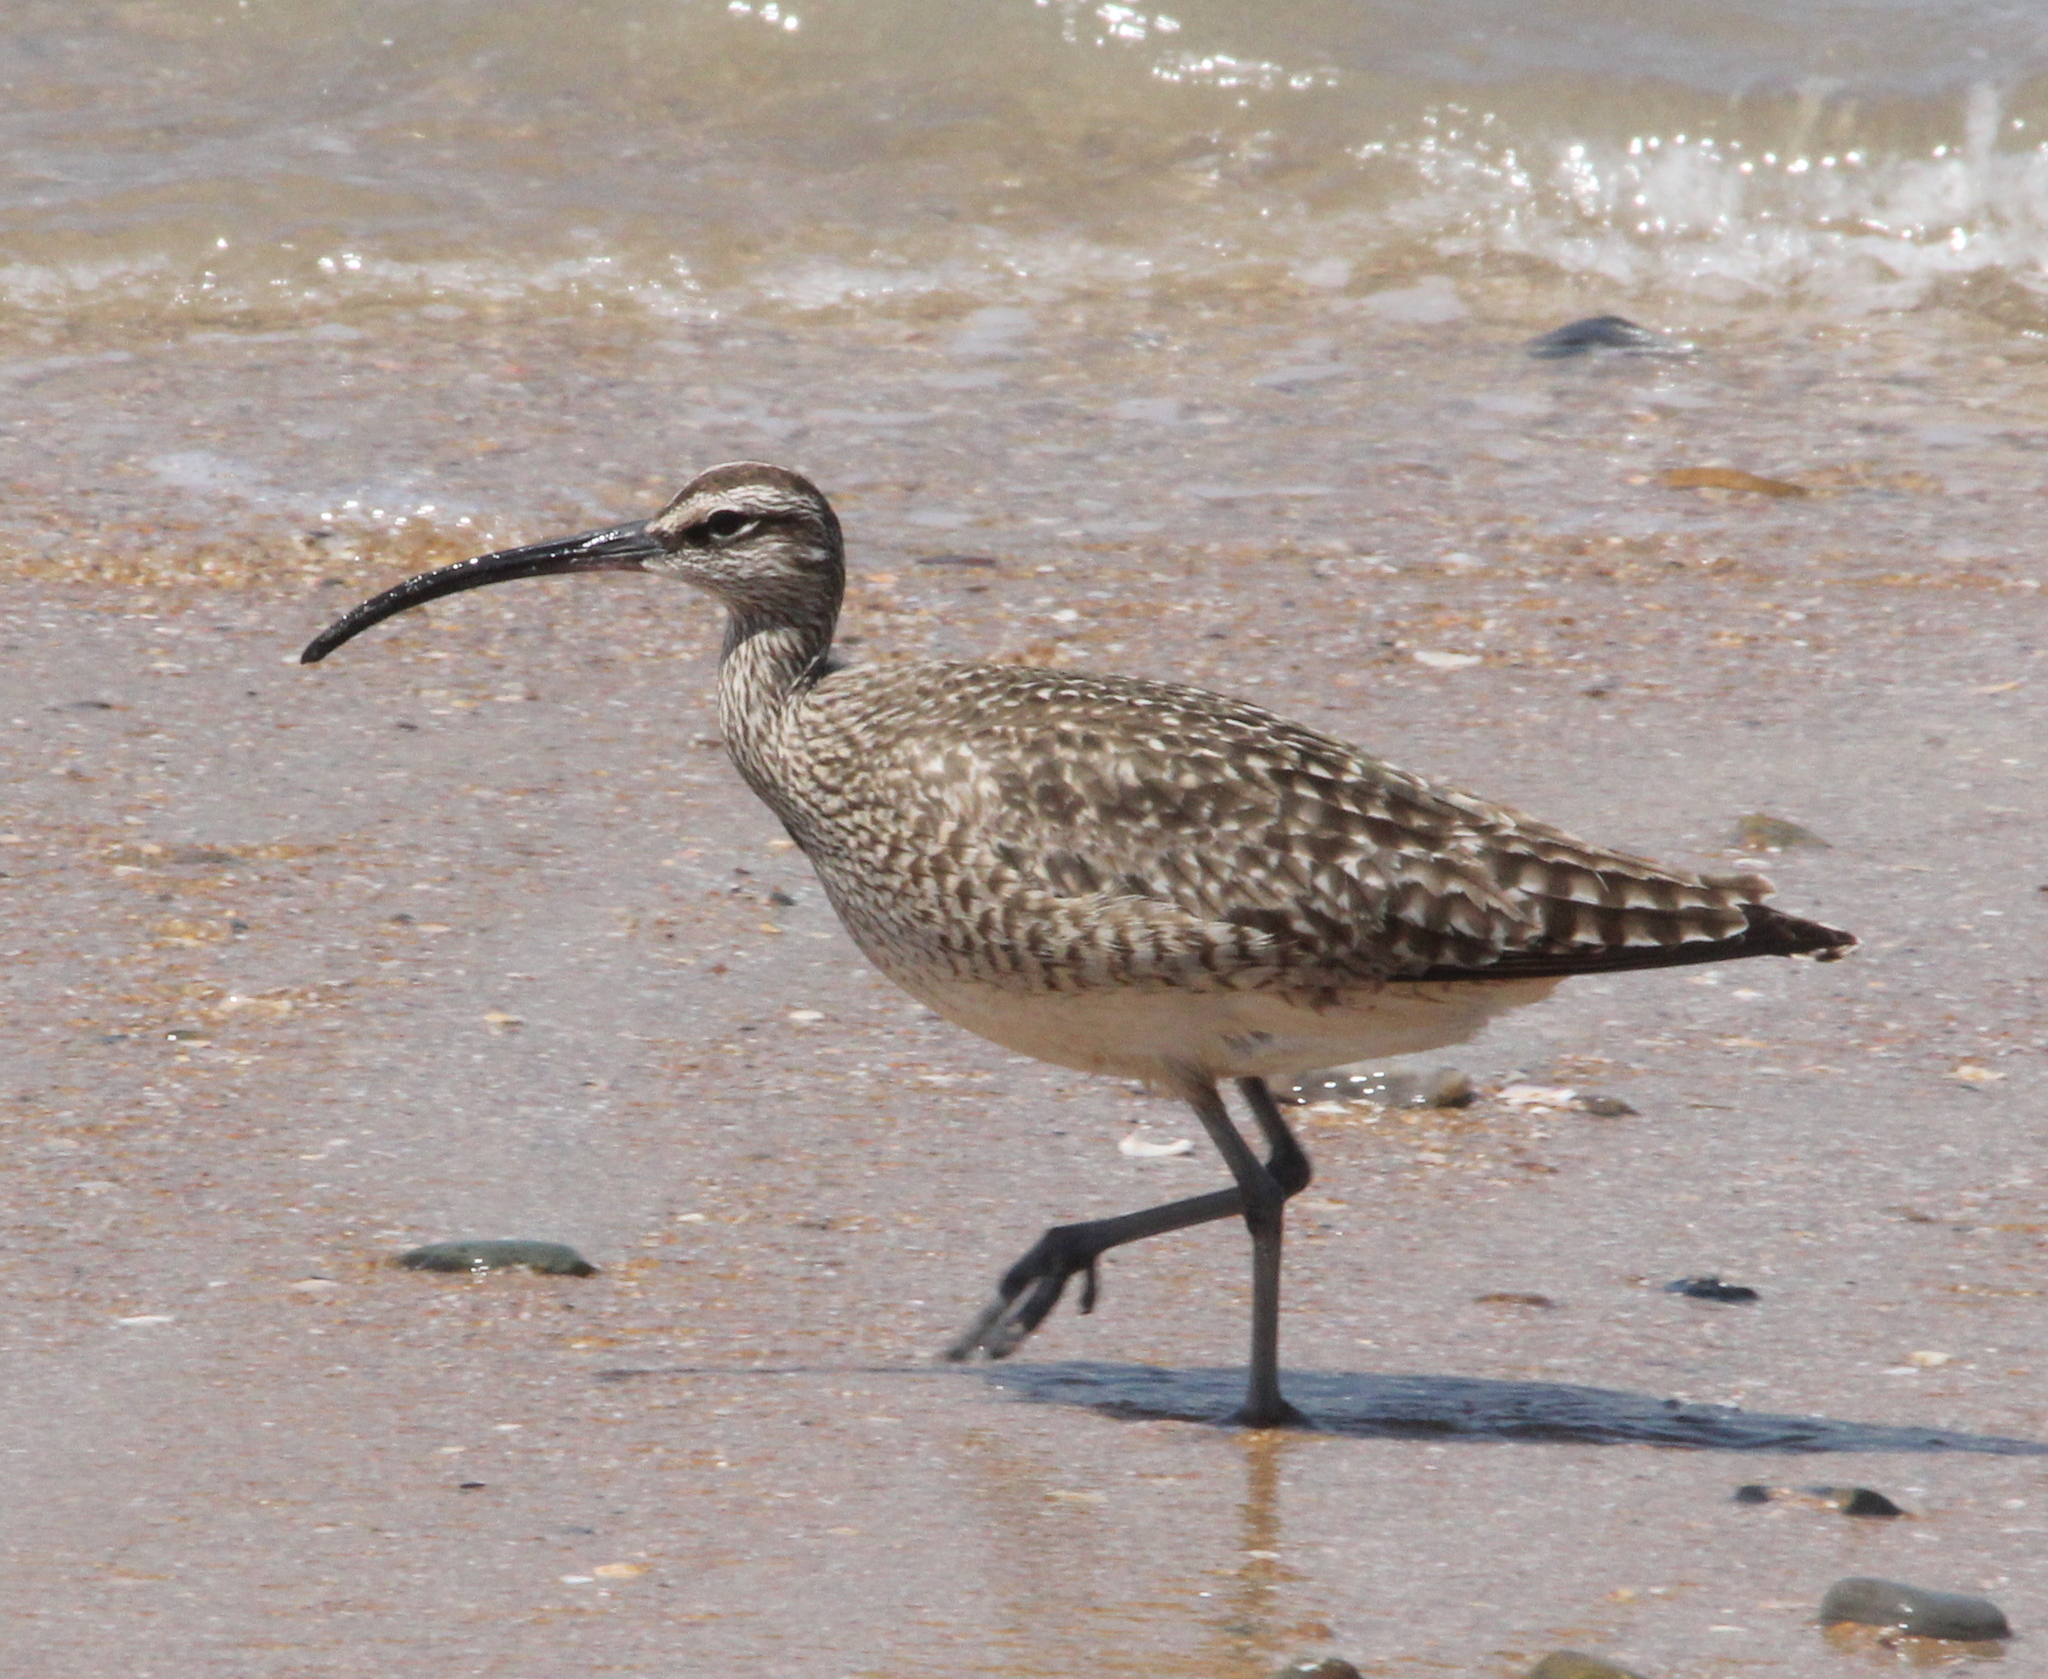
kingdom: Animalia
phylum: Chordata
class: Aves
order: Charadriiformes
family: Scolopacidae
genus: Numenius
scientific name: Numenius phaeopus
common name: Whimbrel
